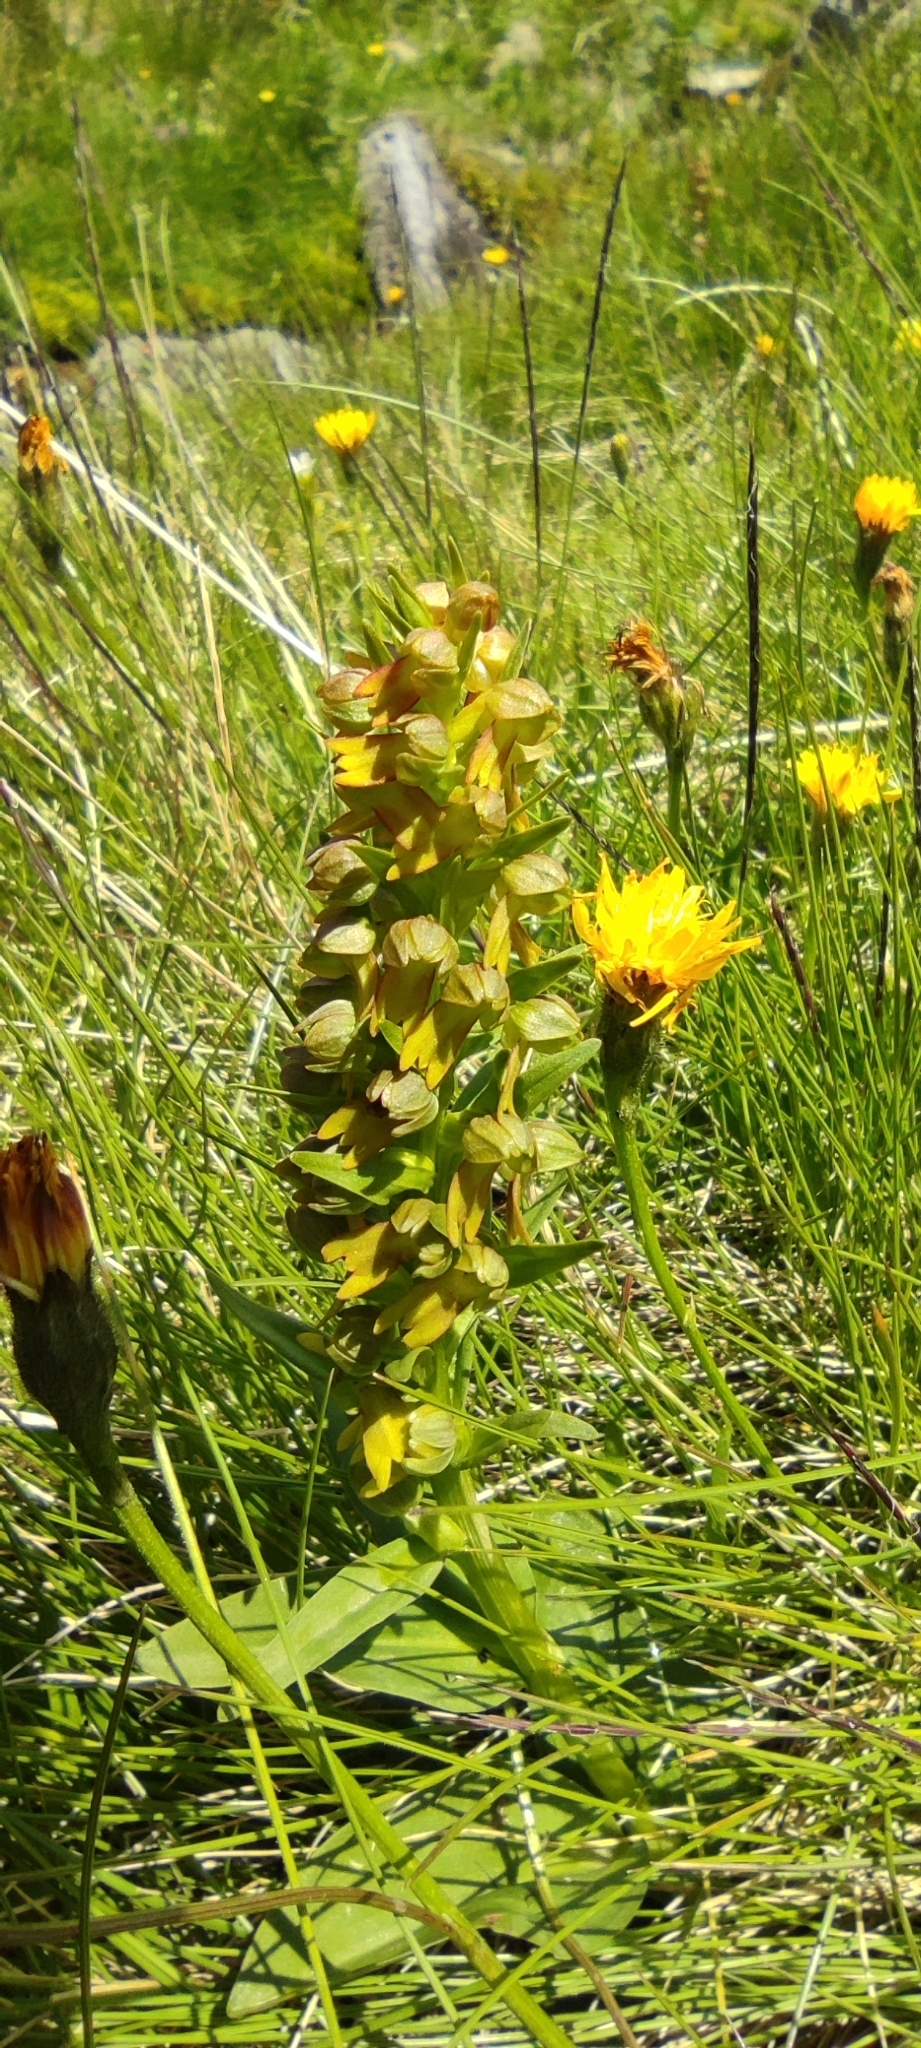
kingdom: Plantae
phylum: Tracheophyta
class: Liliopsida
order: Asparagales
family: Orchidaceae
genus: Dactylorhiza
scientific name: Dactylorhiza viridis
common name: Longbract frog orchid
